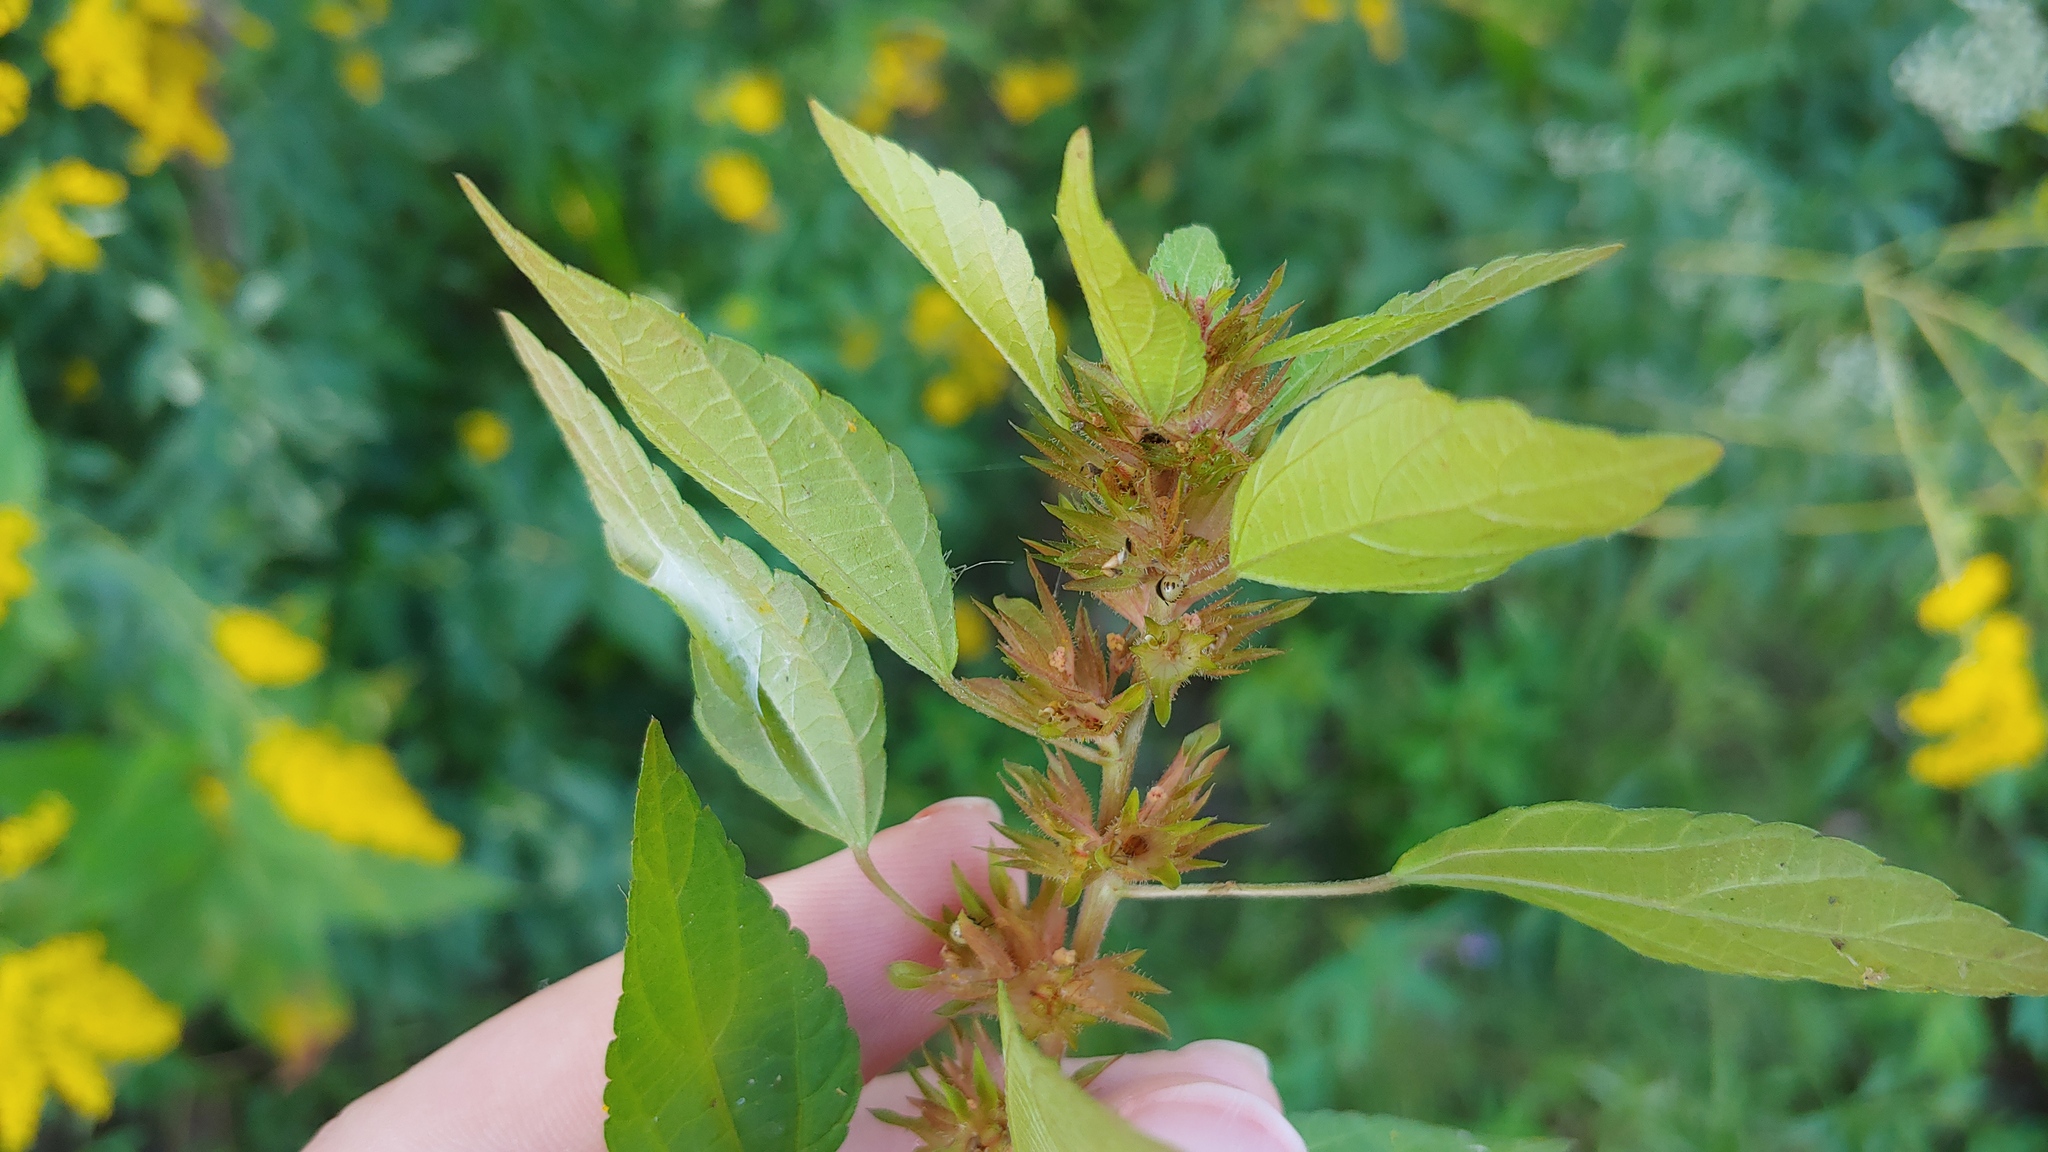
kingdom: Plantae
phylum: Tracheophyta
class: Magnoliopsida
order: Malpighiales
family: Euphorbiaceae
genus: Acalypha
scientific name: Acalypha rhomboidea
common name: Rhombic copperleaf
